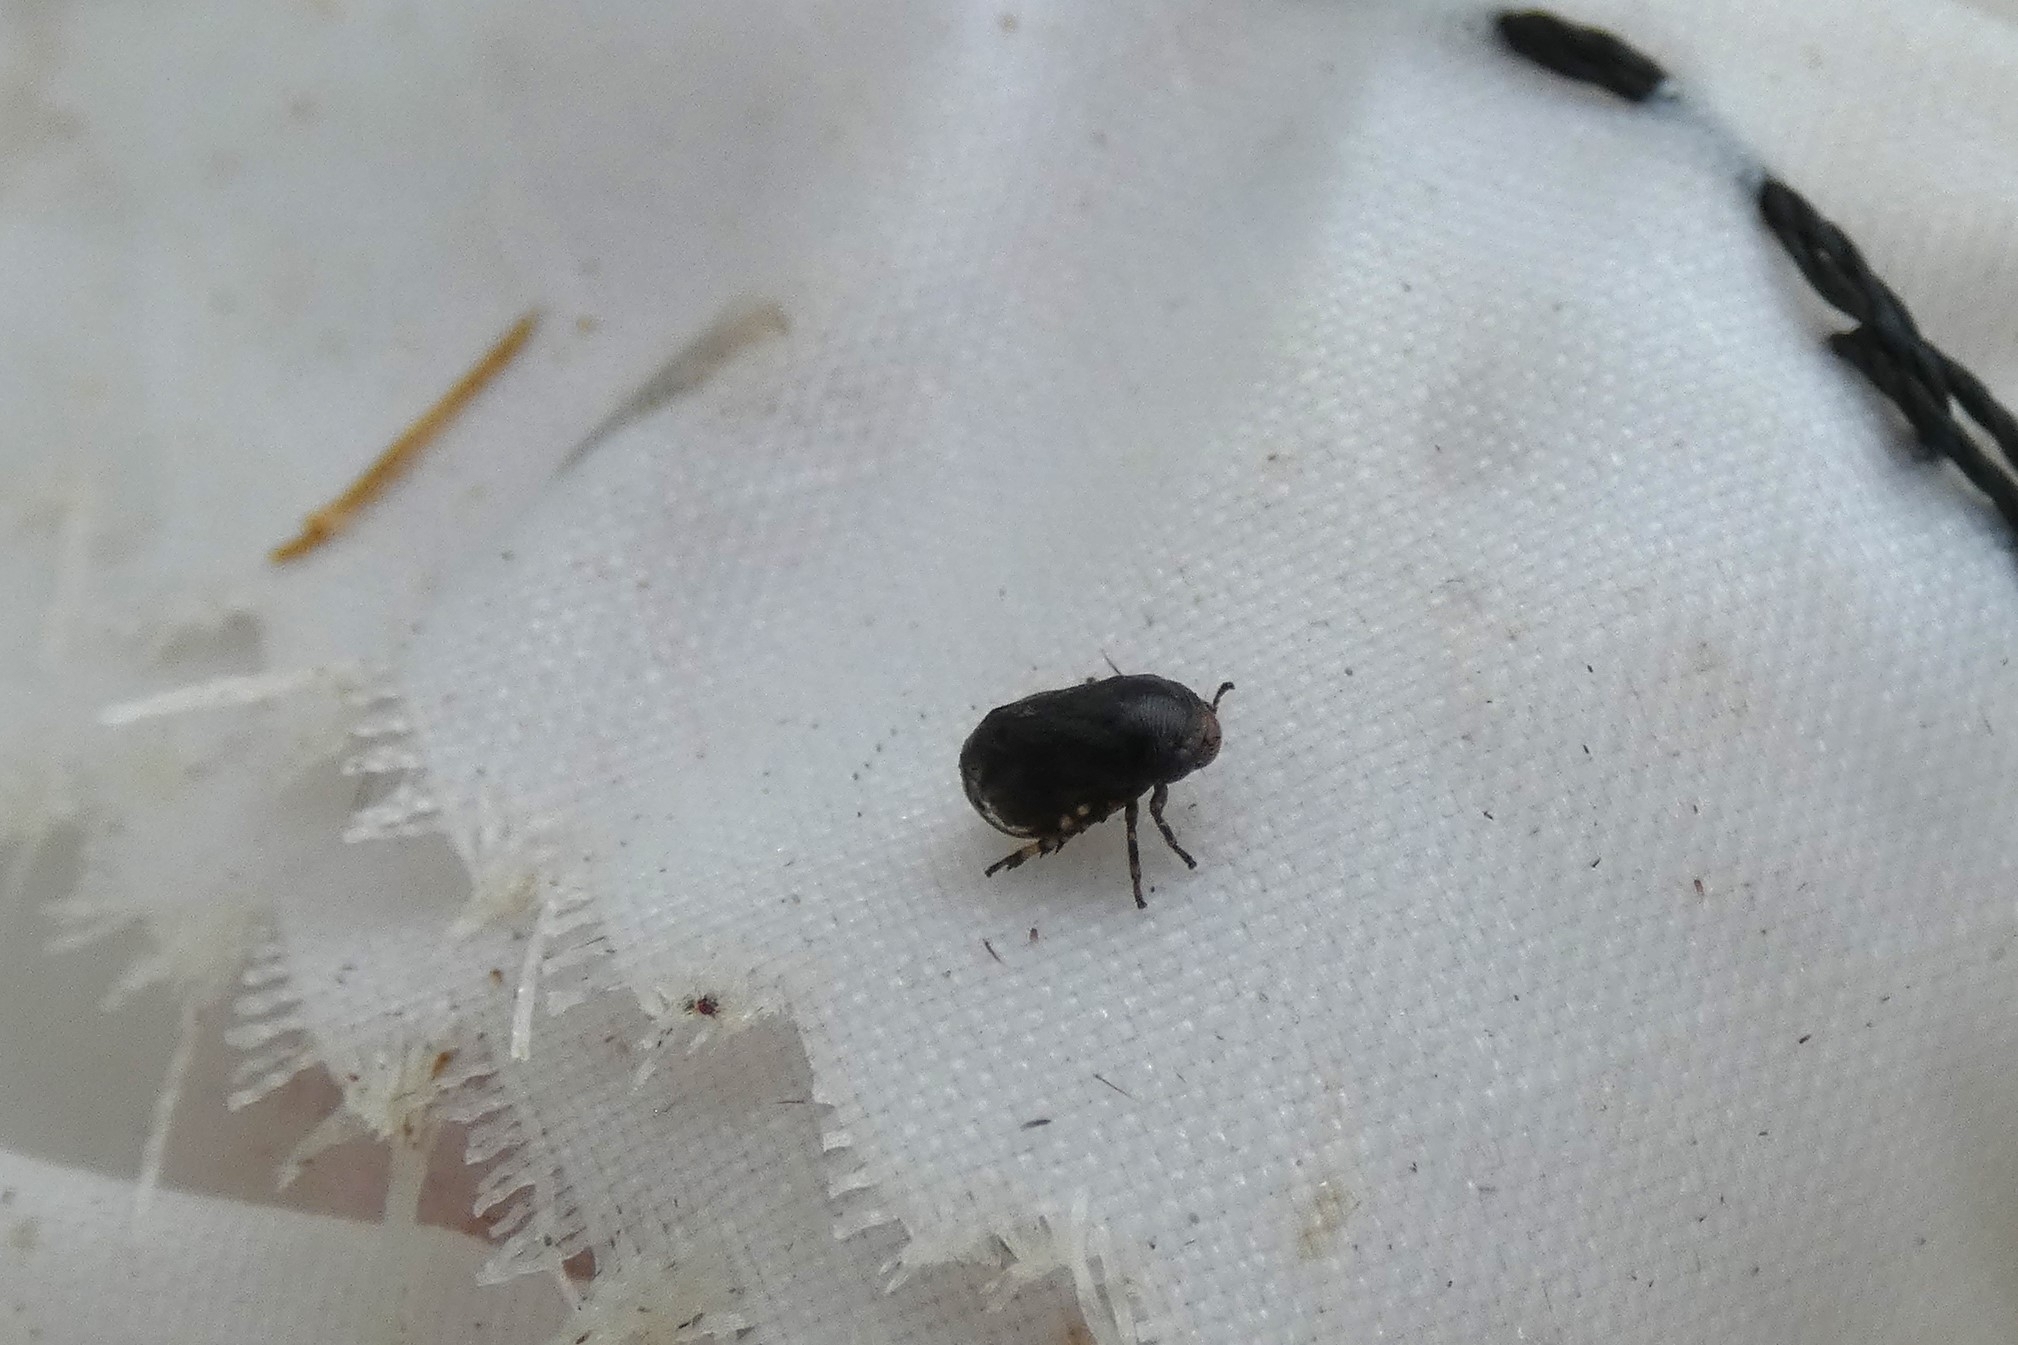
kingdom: Animalia
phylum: Arthropoda
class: Insecta
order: Hemiptera
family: Clastopteridae
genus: Clastoptera
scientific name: Clastoptera xanthocephala
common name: Sunflower spittlebug
